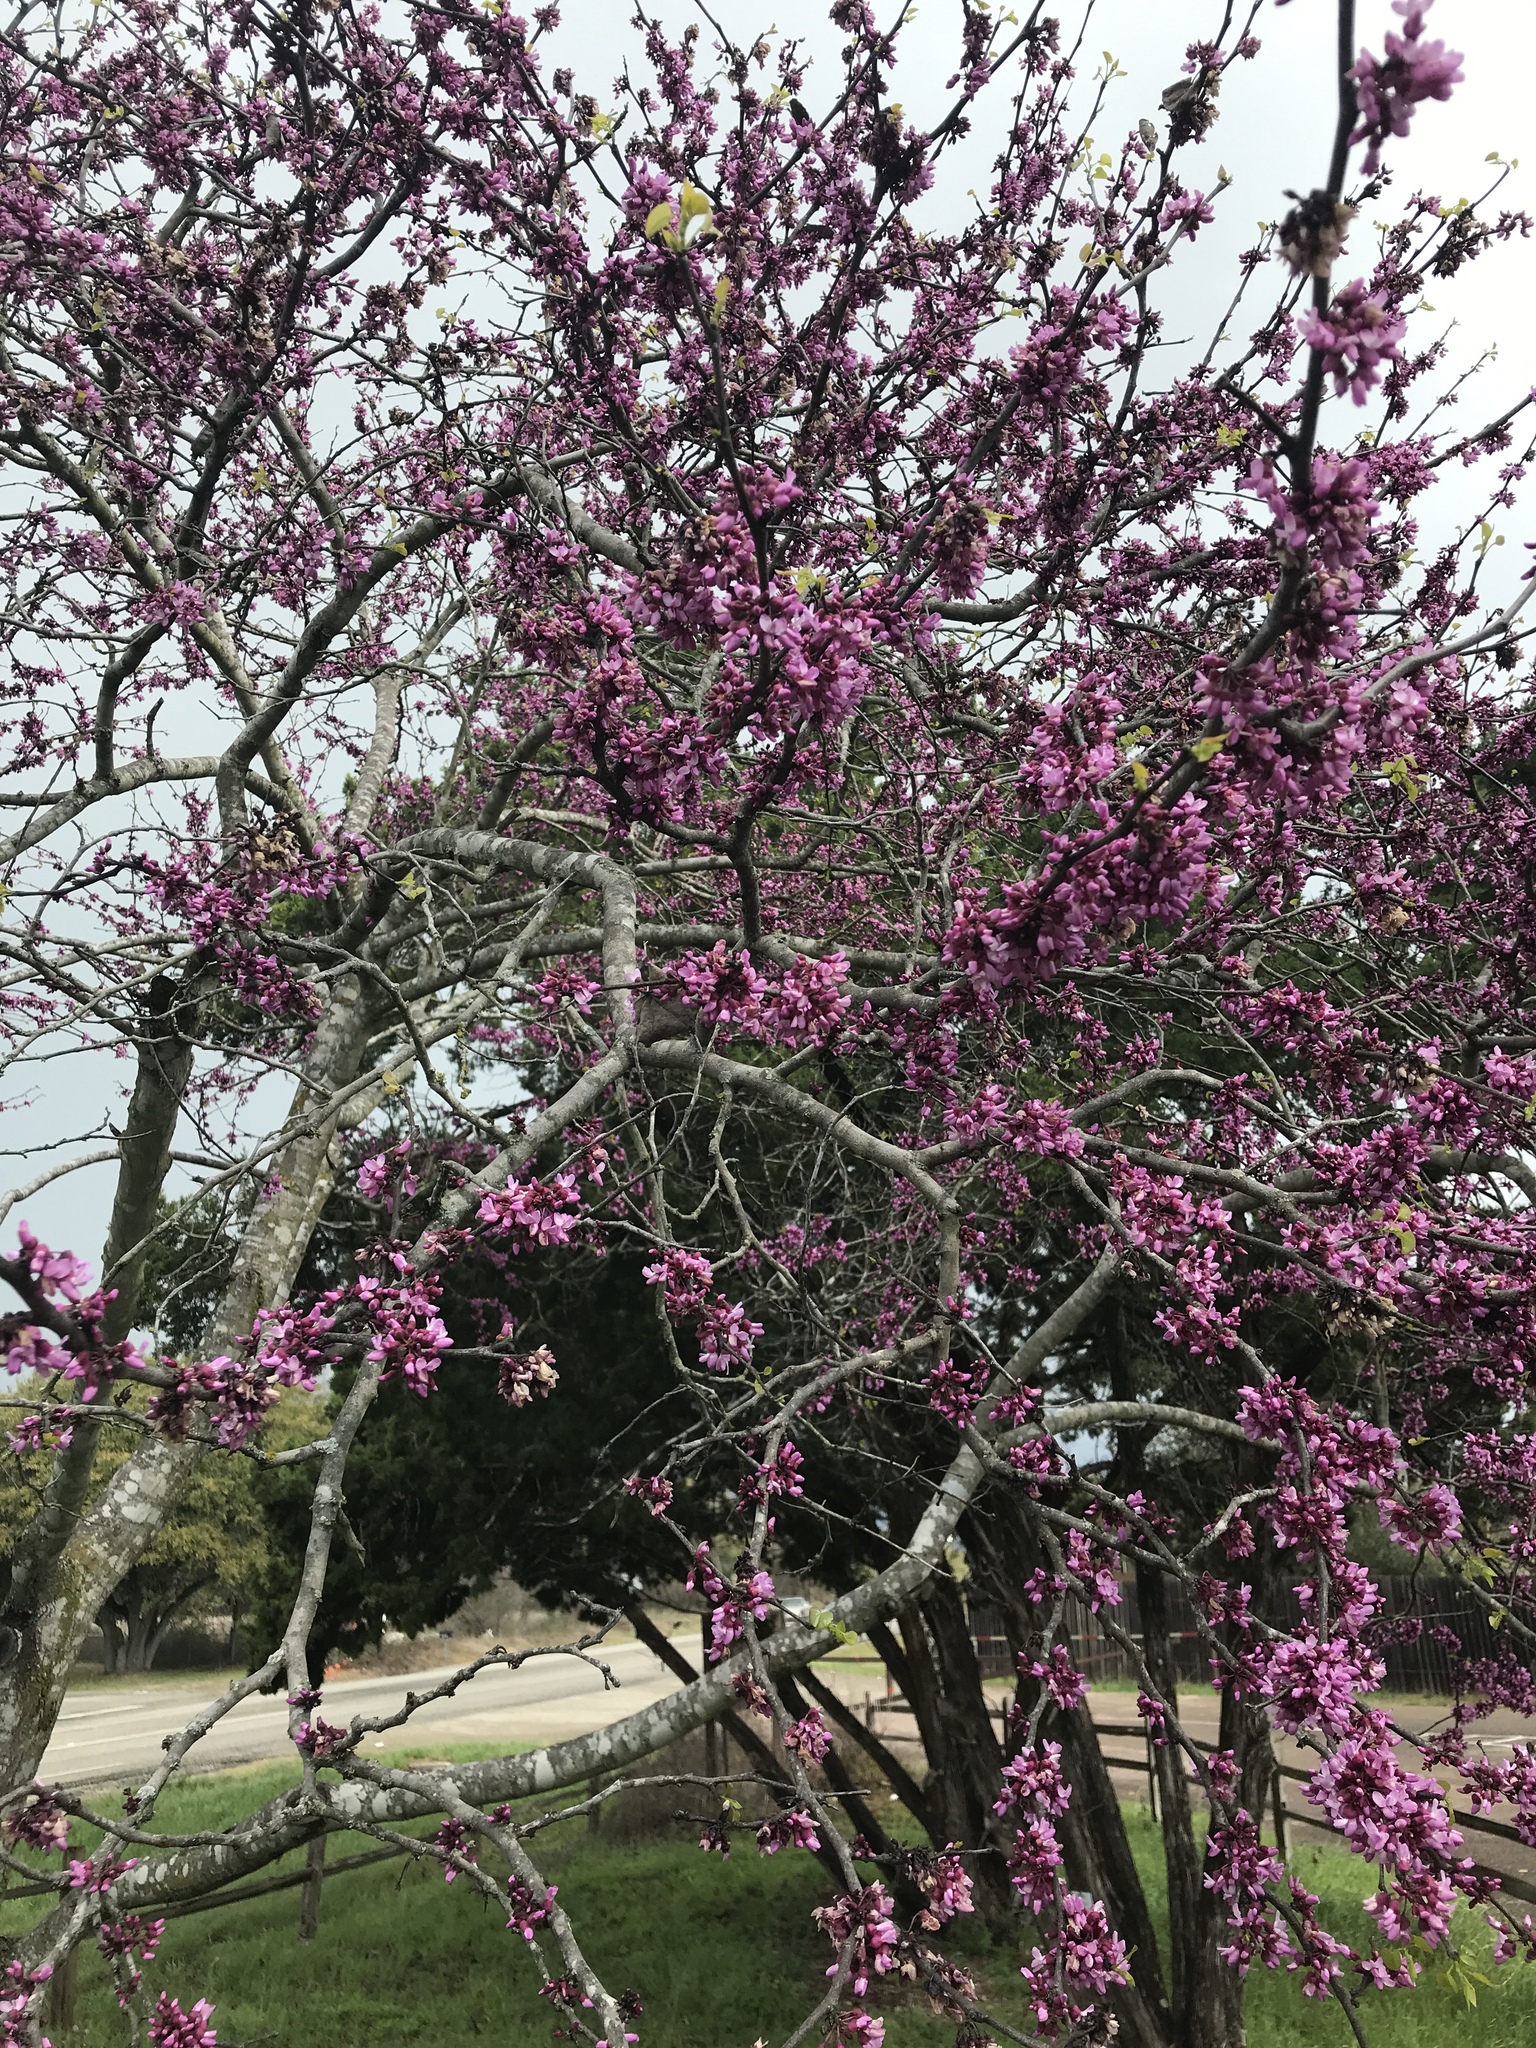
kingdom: Plantae
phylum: Tracheophyta
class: Magnoliopsida
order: Fabales
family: Fabaceae
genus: Cercis
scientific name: Cercis canadensis
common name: Eastern redbud
